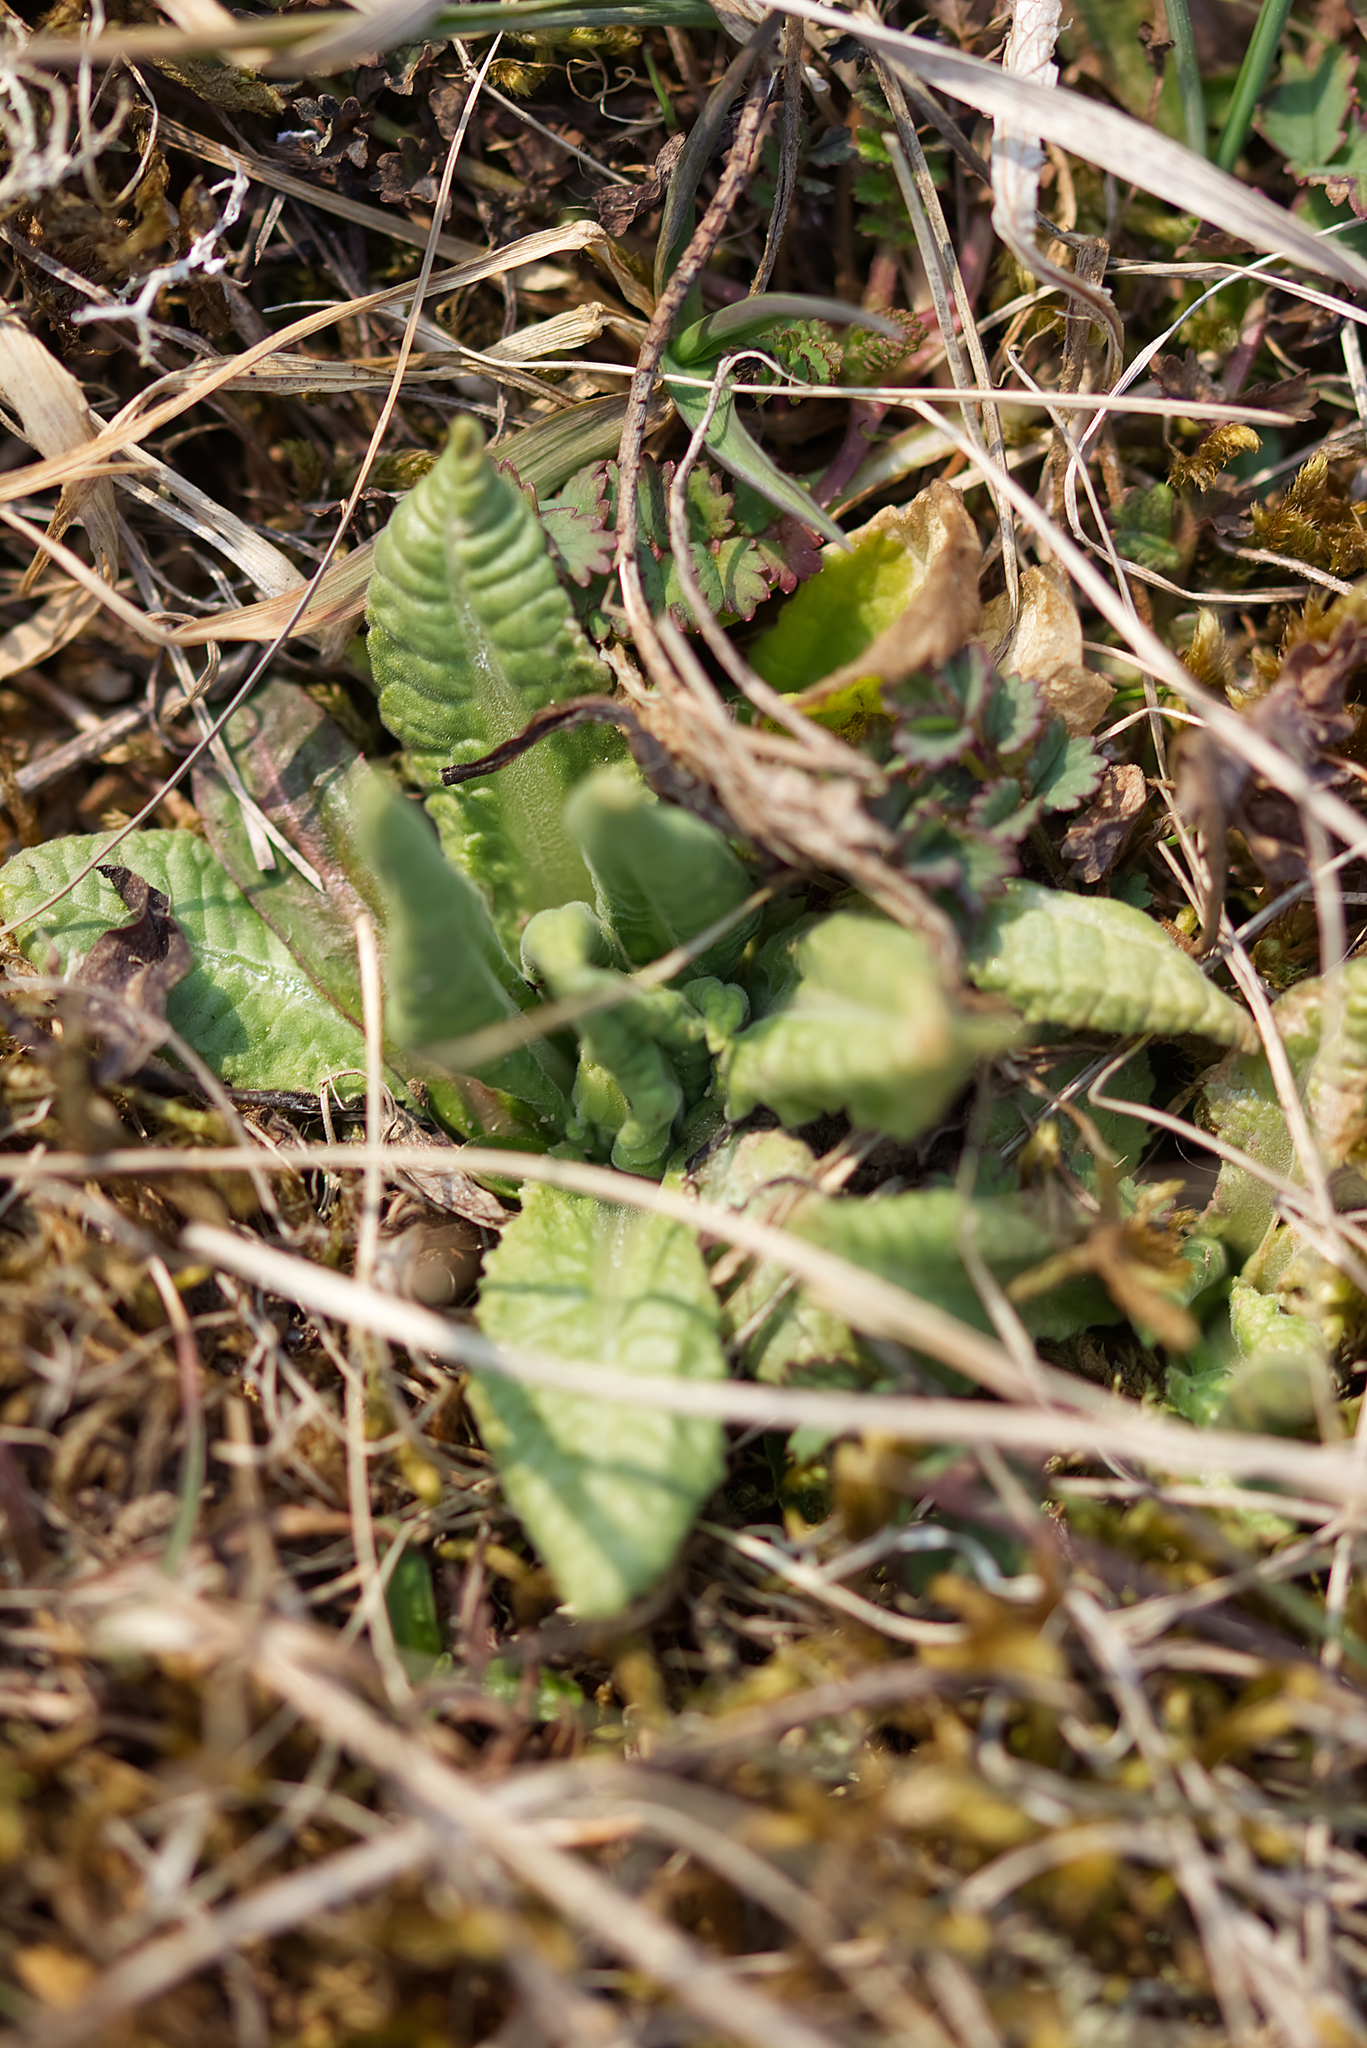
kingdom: Plantae
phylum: Tracheophyta
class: Magnoliopsida
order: Ericales
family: Primulaceae
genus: Primula
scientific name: Primula elatior
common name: Oxlip
